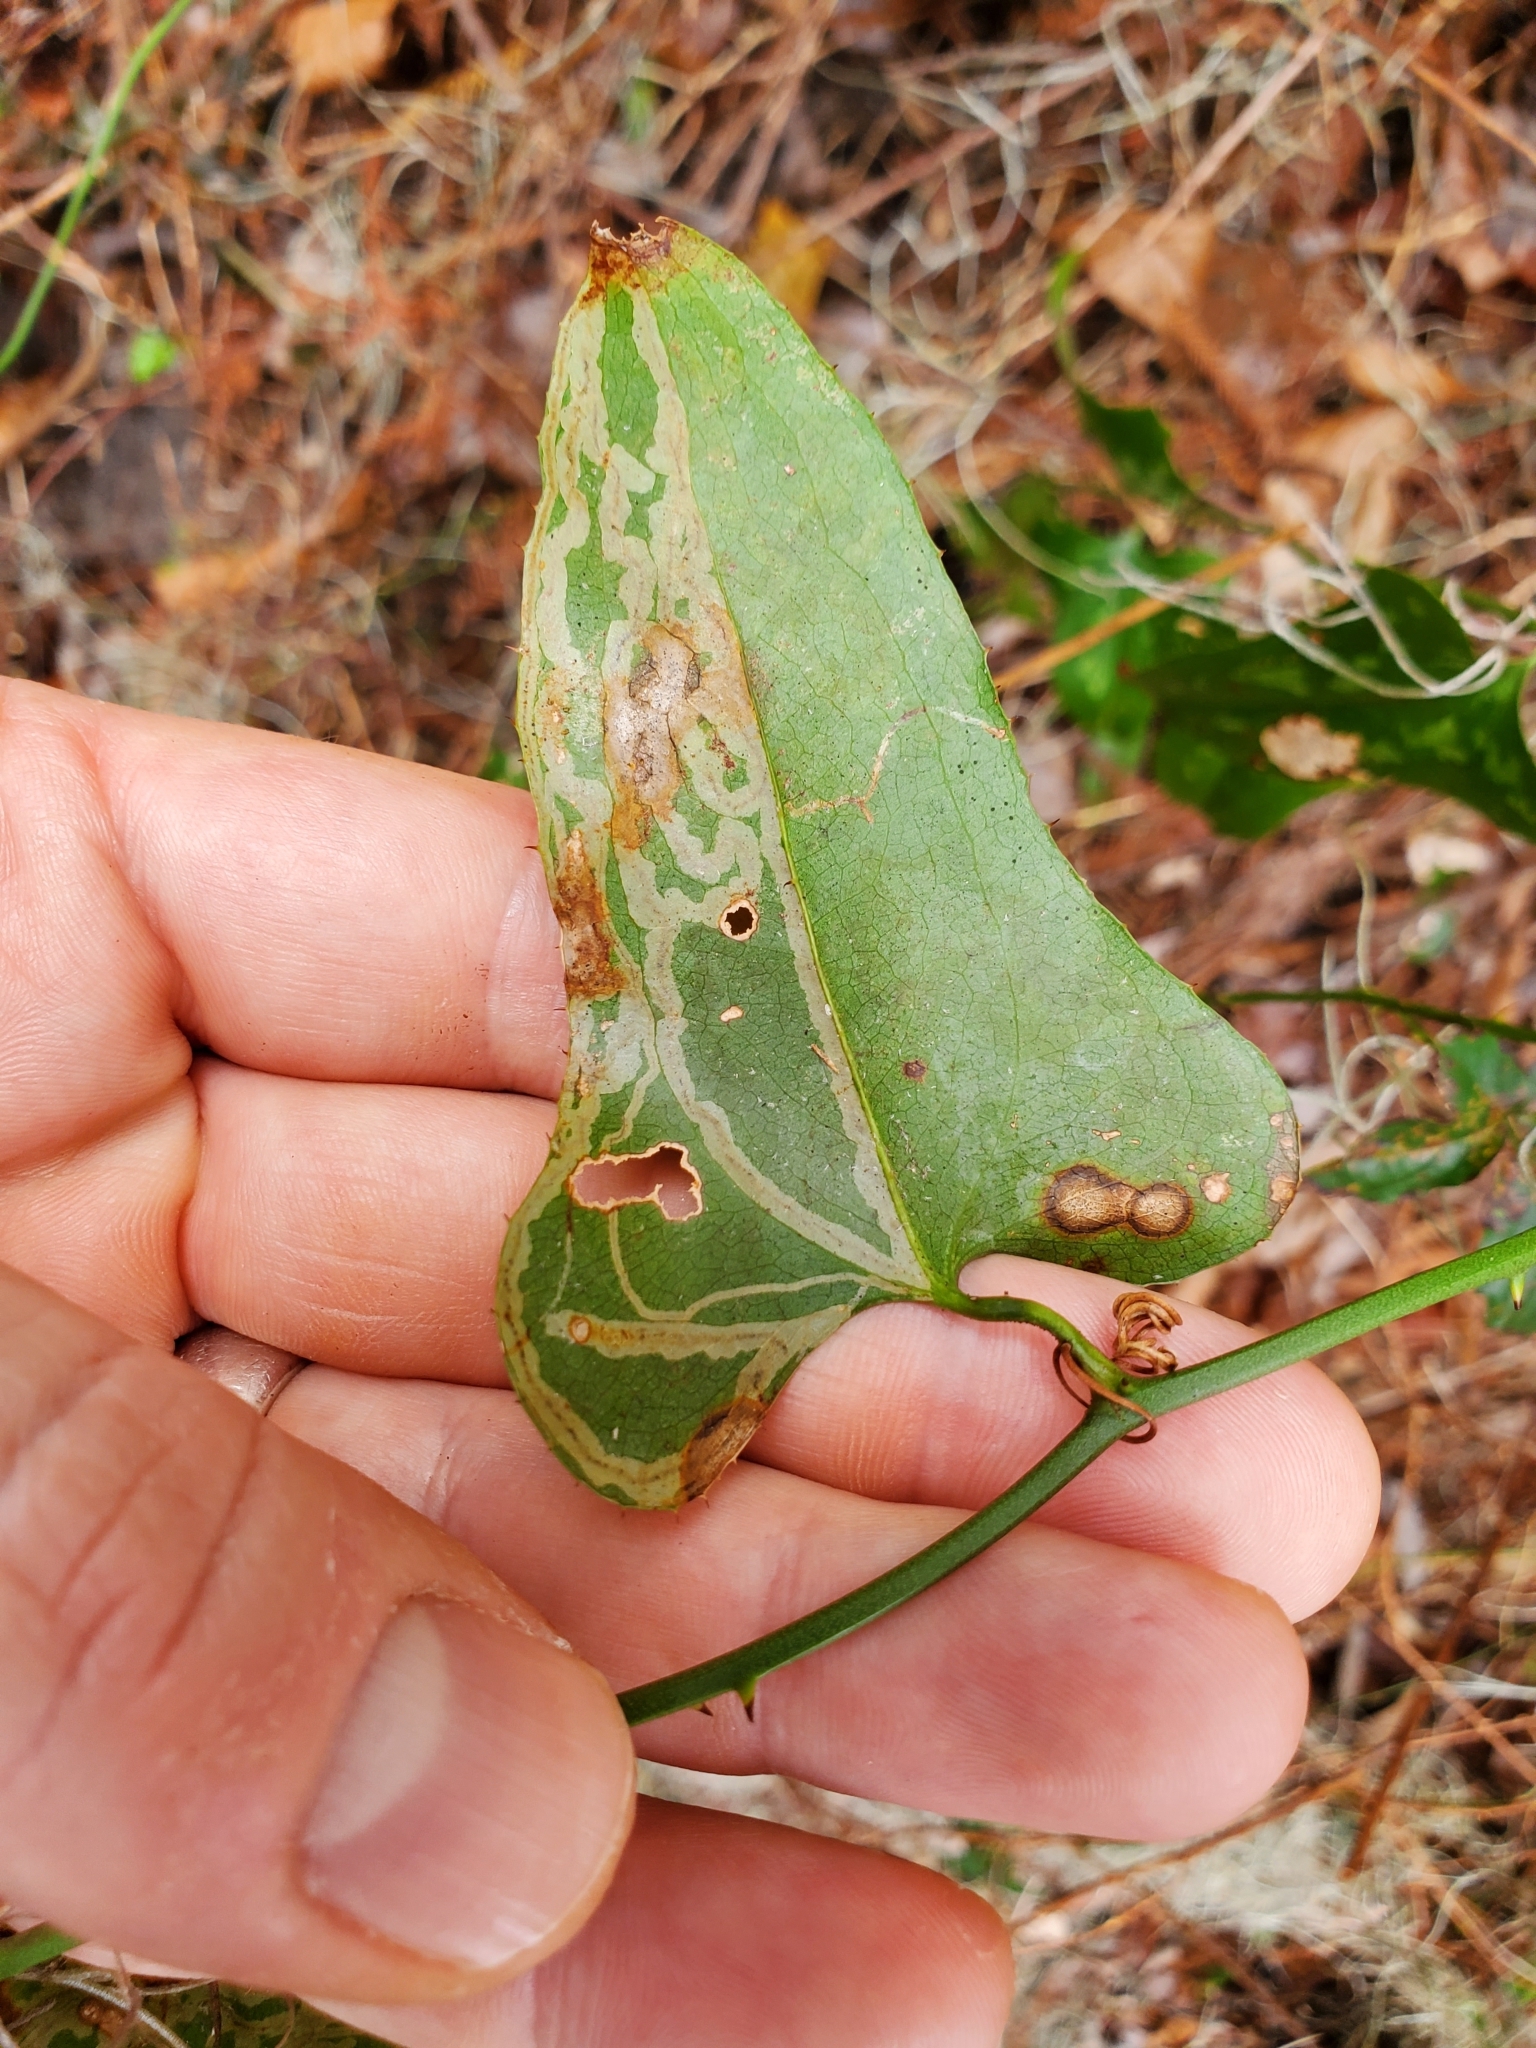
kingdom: Plantae
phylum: Tracheophyta
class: Liliopsida
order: Liliales
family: Smilacaceae
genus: Smilax
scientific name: Smilax bona-nox
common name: Catbrier
